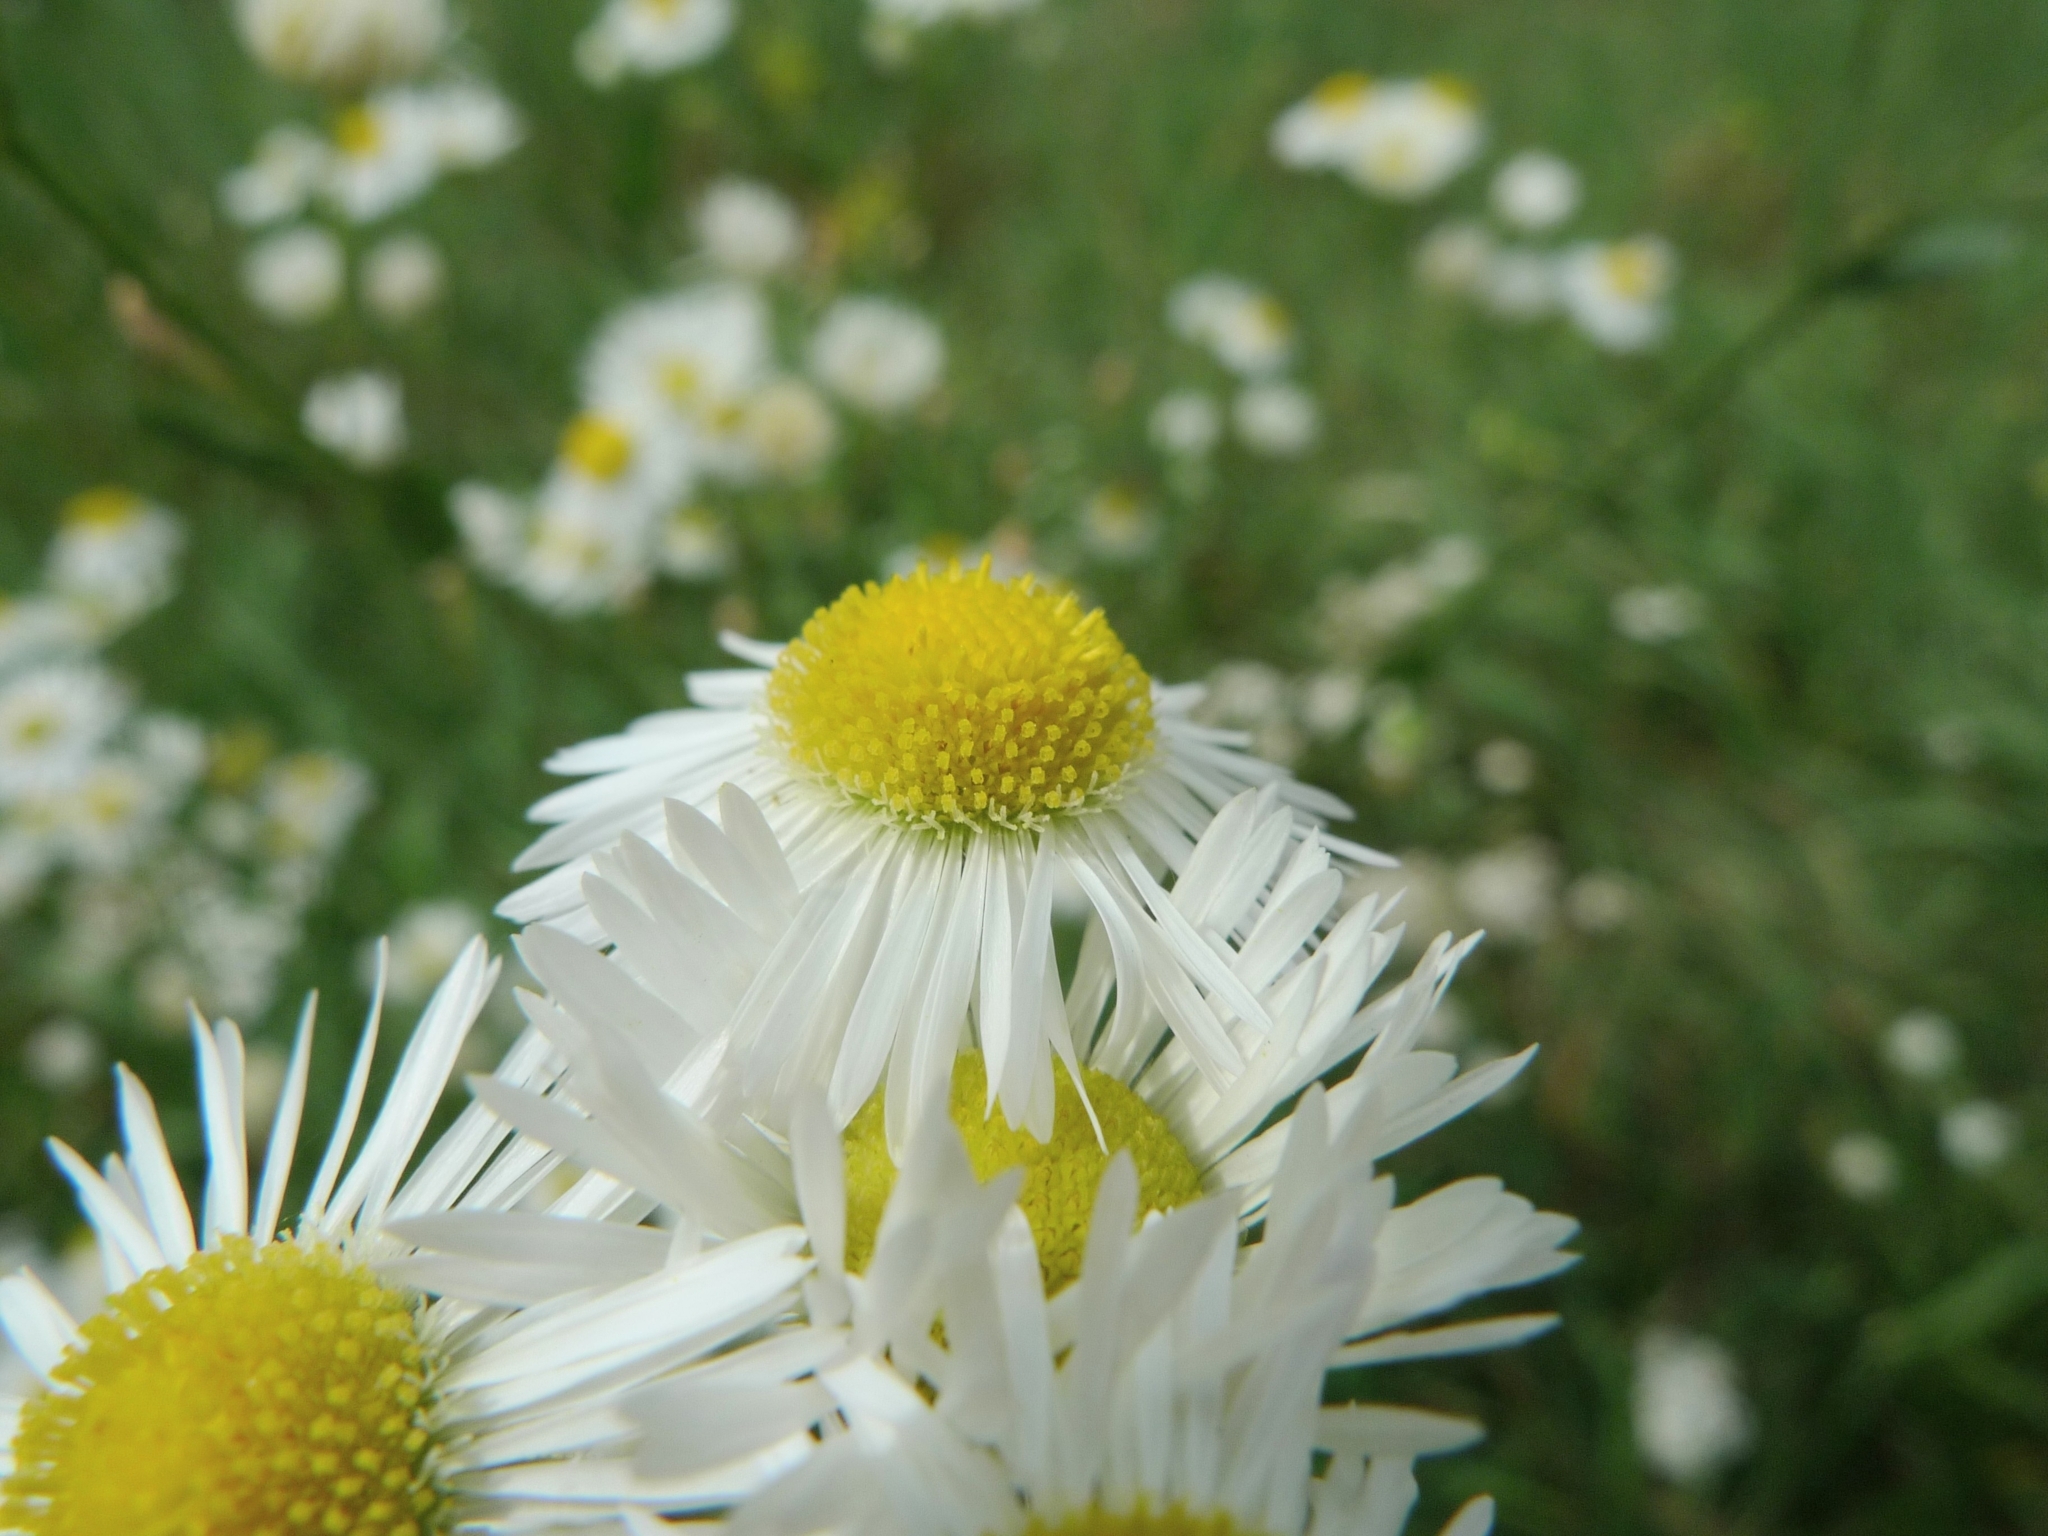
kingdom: Plantae
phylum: Tracheophyta
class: Magnoliopsida
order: Asterales
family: Asteraceae
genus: Erigeron
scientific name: Erigeron annuus
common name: Tall fleabane
